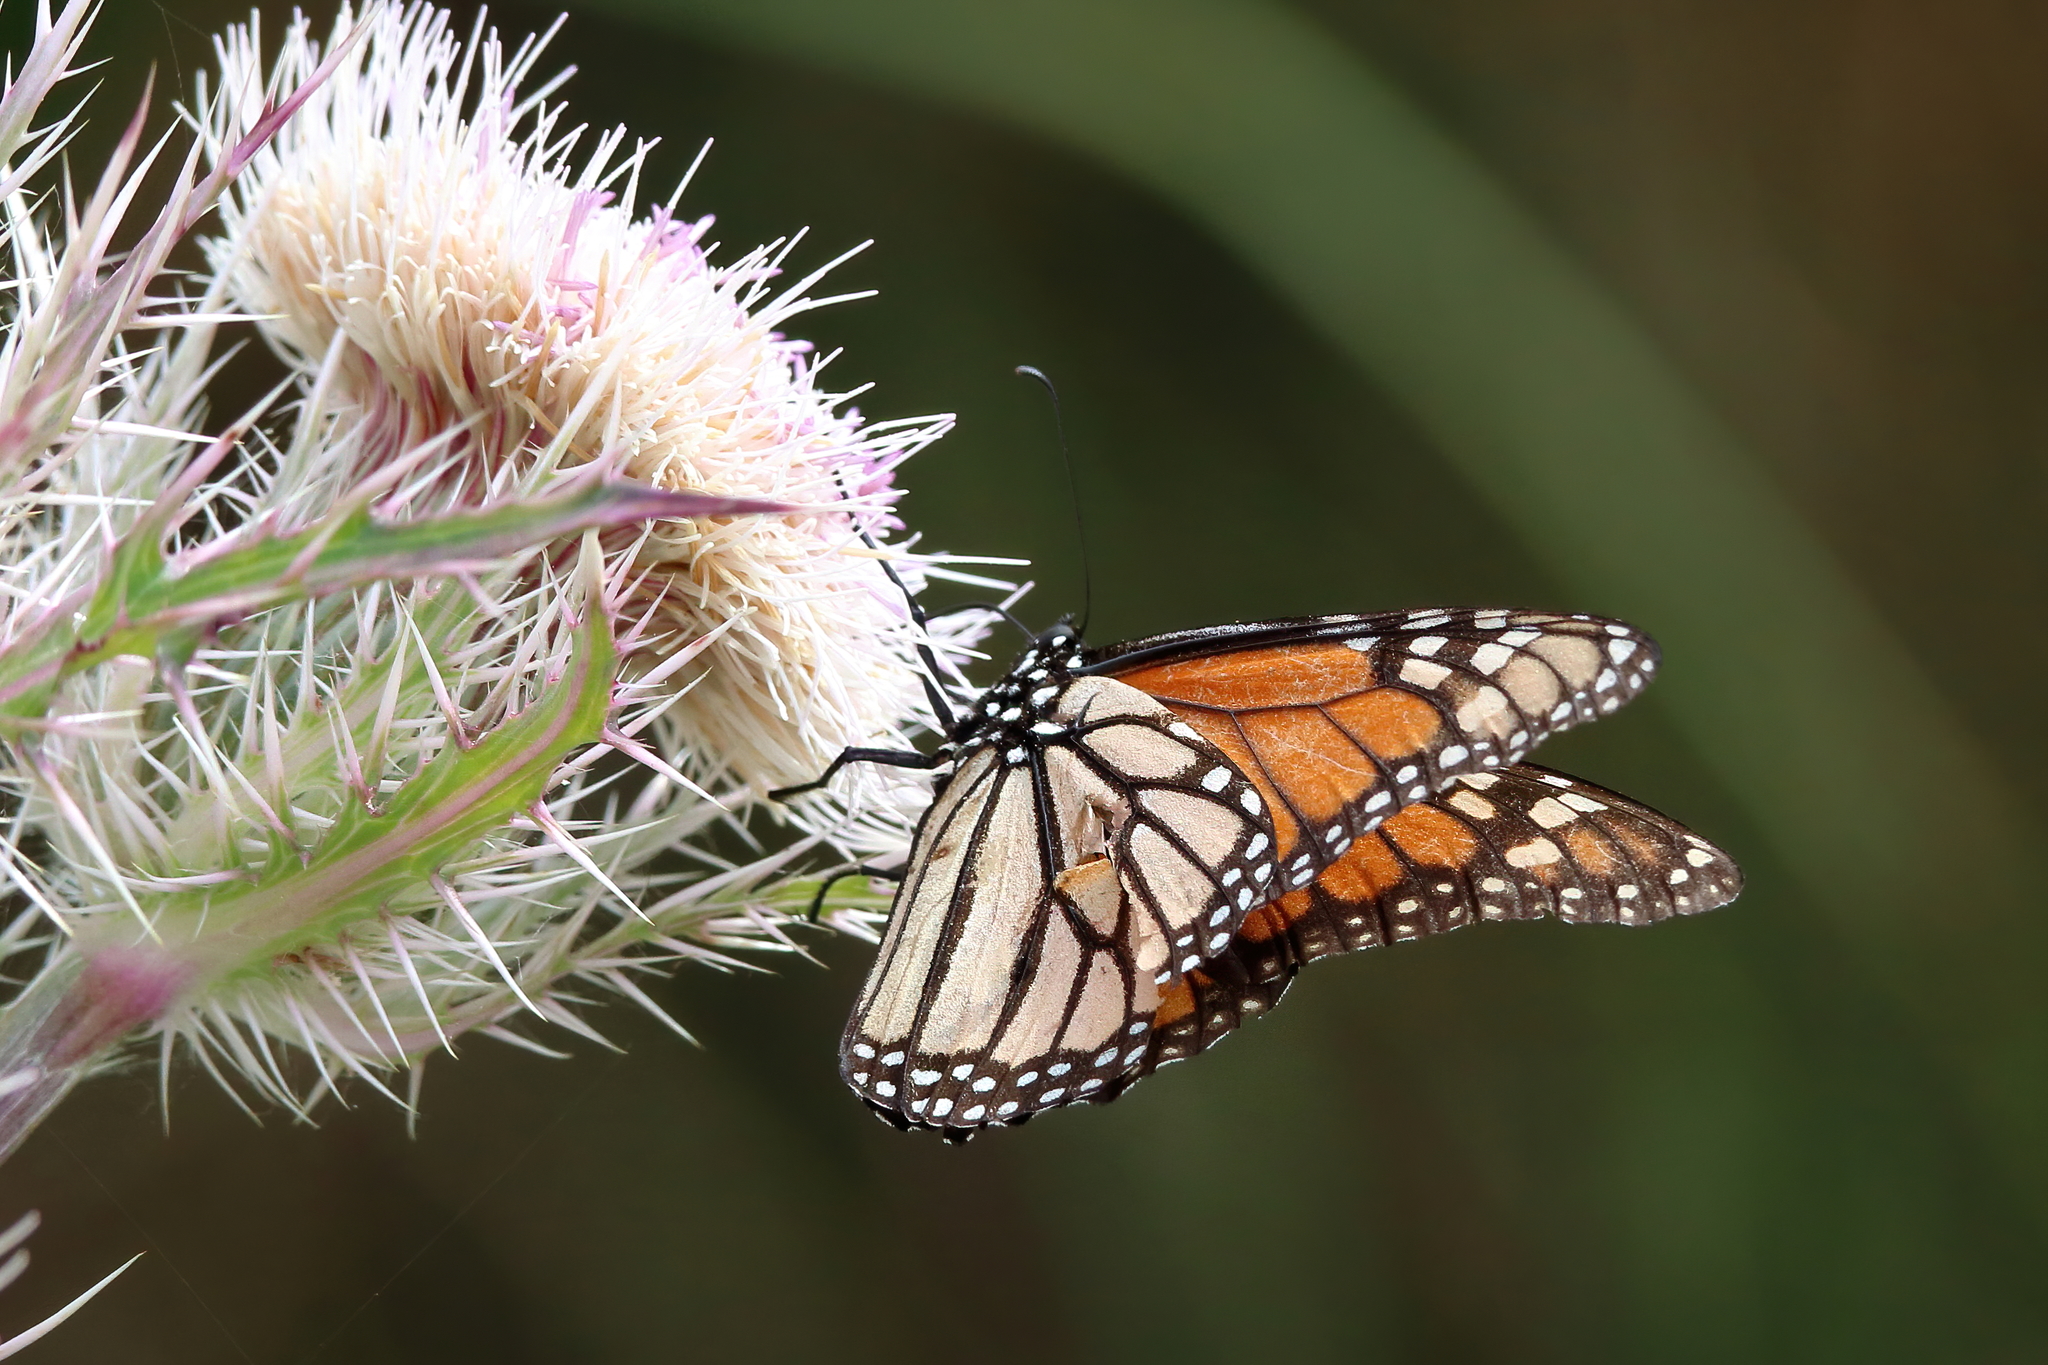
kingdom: Animalia
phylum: Arthropoda
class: Insecta
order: Lepidoptera
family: Nymphalidae
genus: Danaus
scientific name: Danaus plexippus
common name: Monarch
